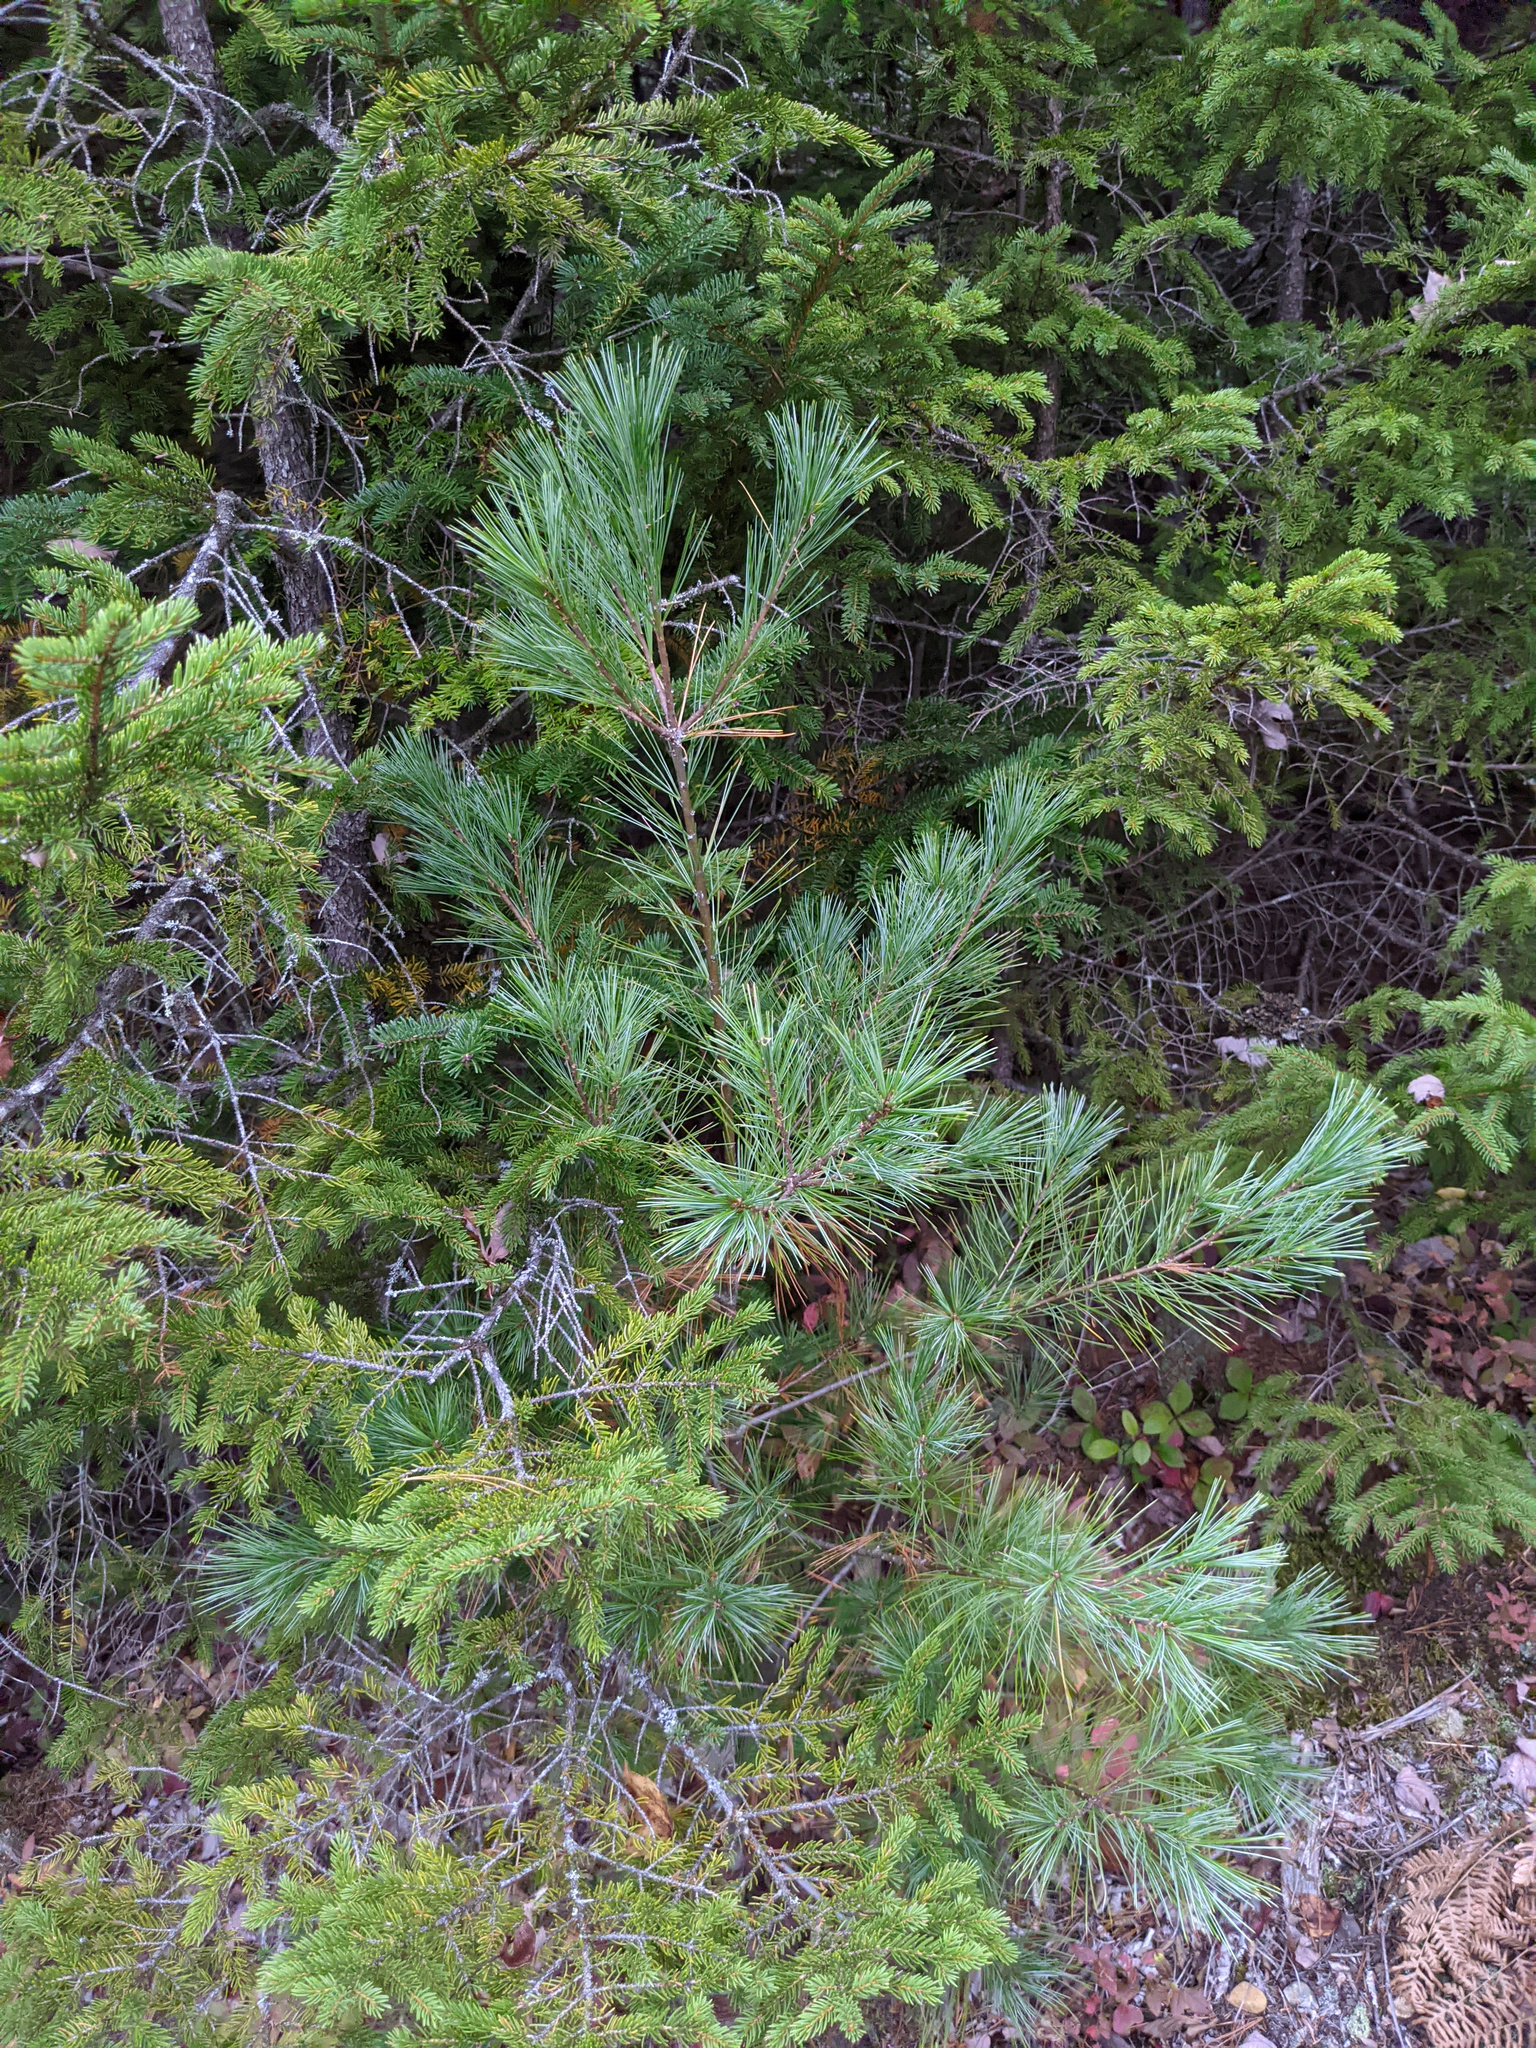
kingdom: Plantae
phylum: Tracheophyta
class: Pinopsida
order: Pinales
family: Pinaceae
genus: Pinus
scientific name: Pinus strobus
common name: Weymouth pine
